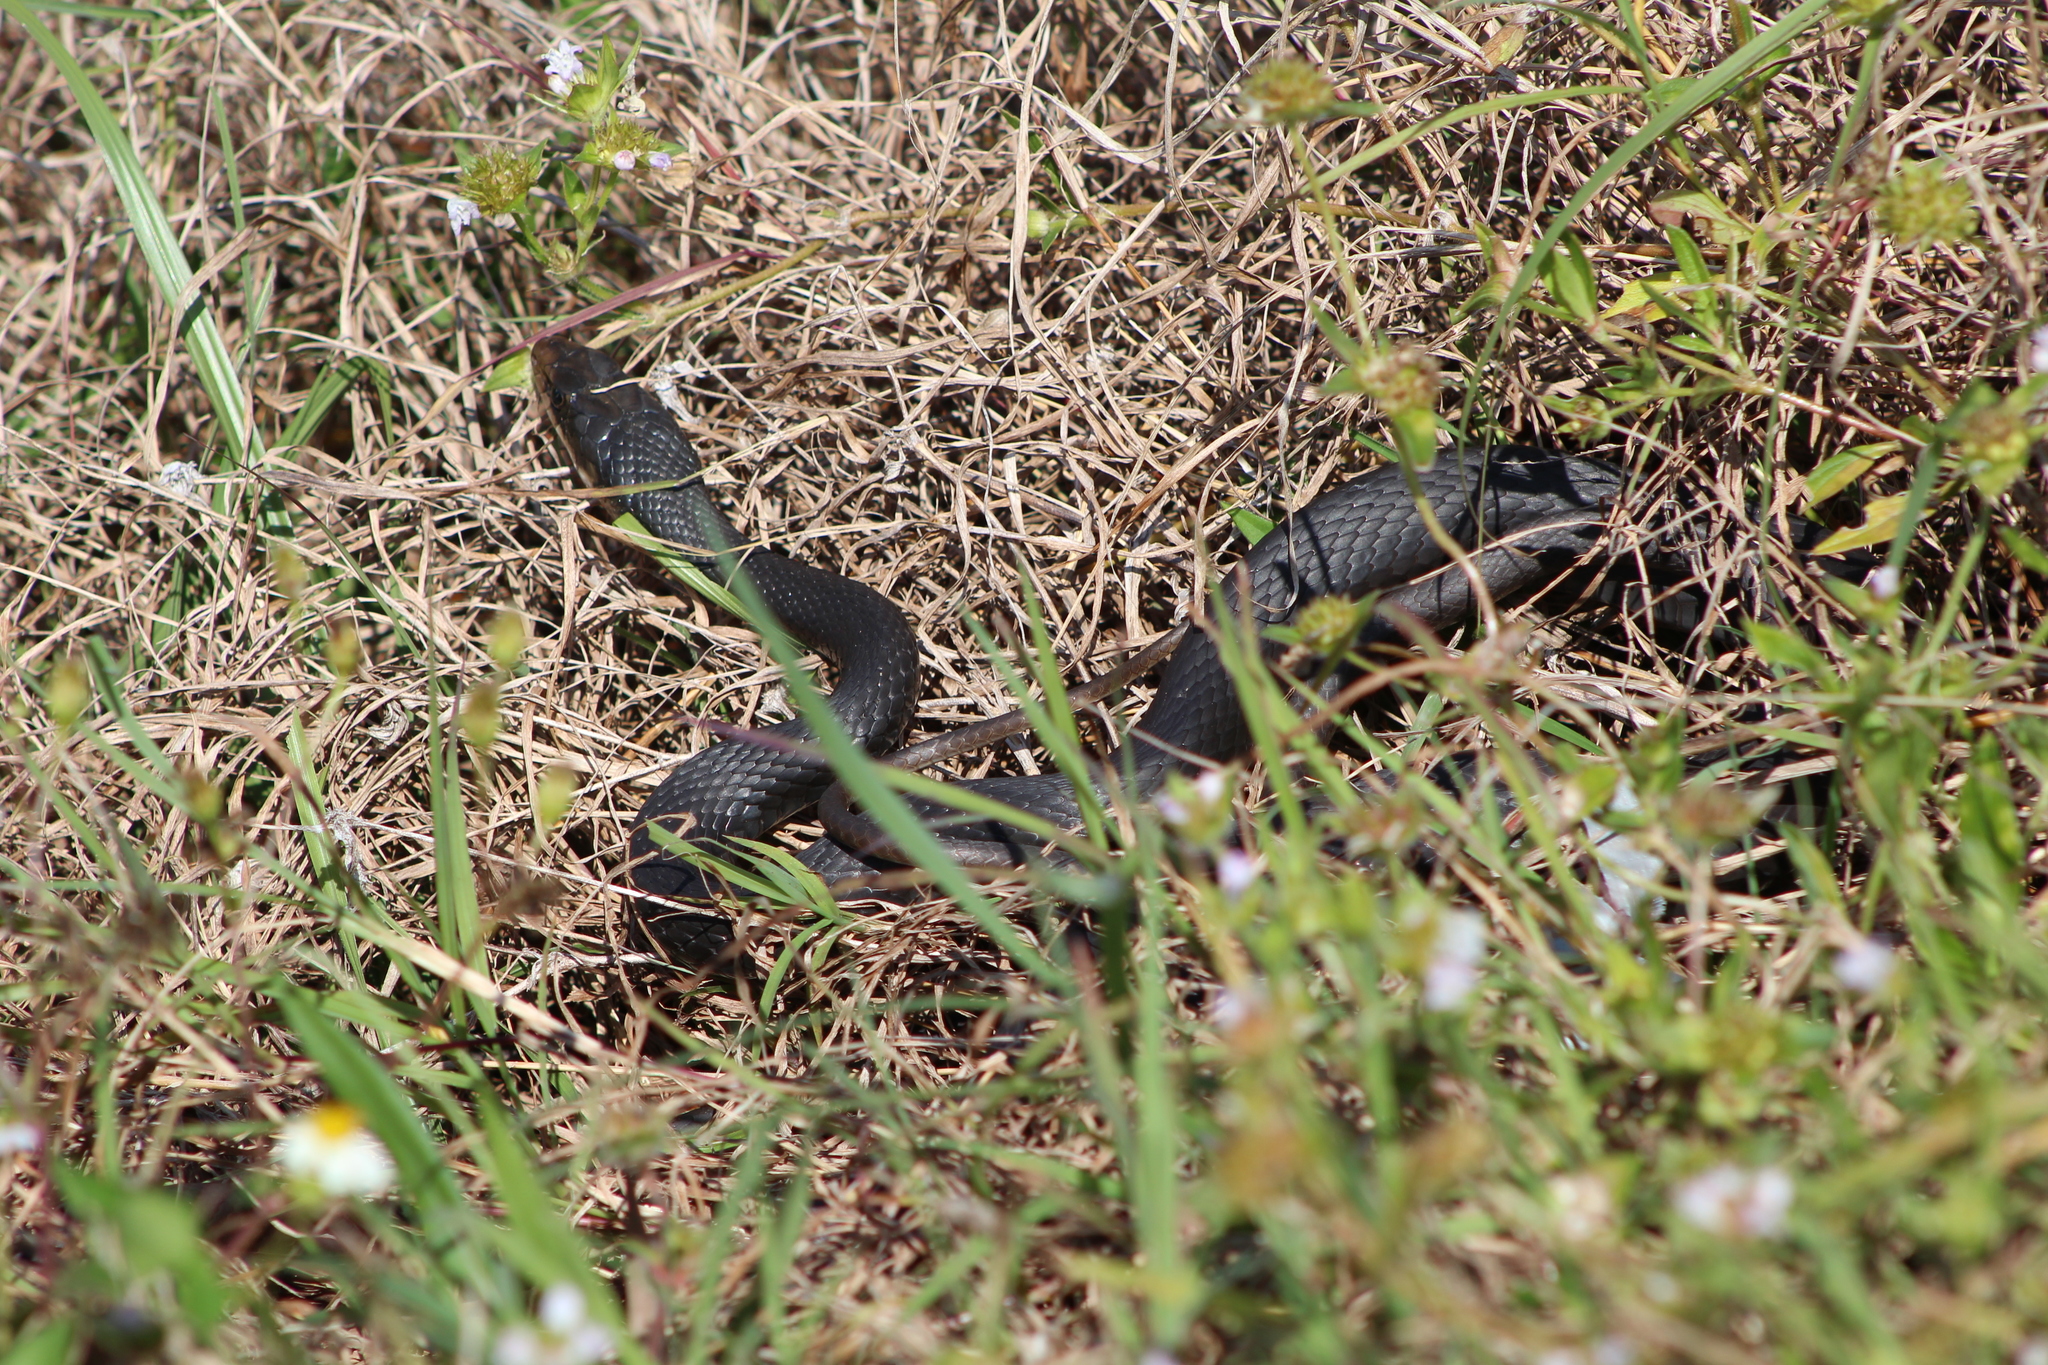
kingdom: Animalia
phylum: Chordata
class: Squamata
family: Colubridae
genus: Coluber
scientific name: Coluber constrictor
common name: Eastern racer
